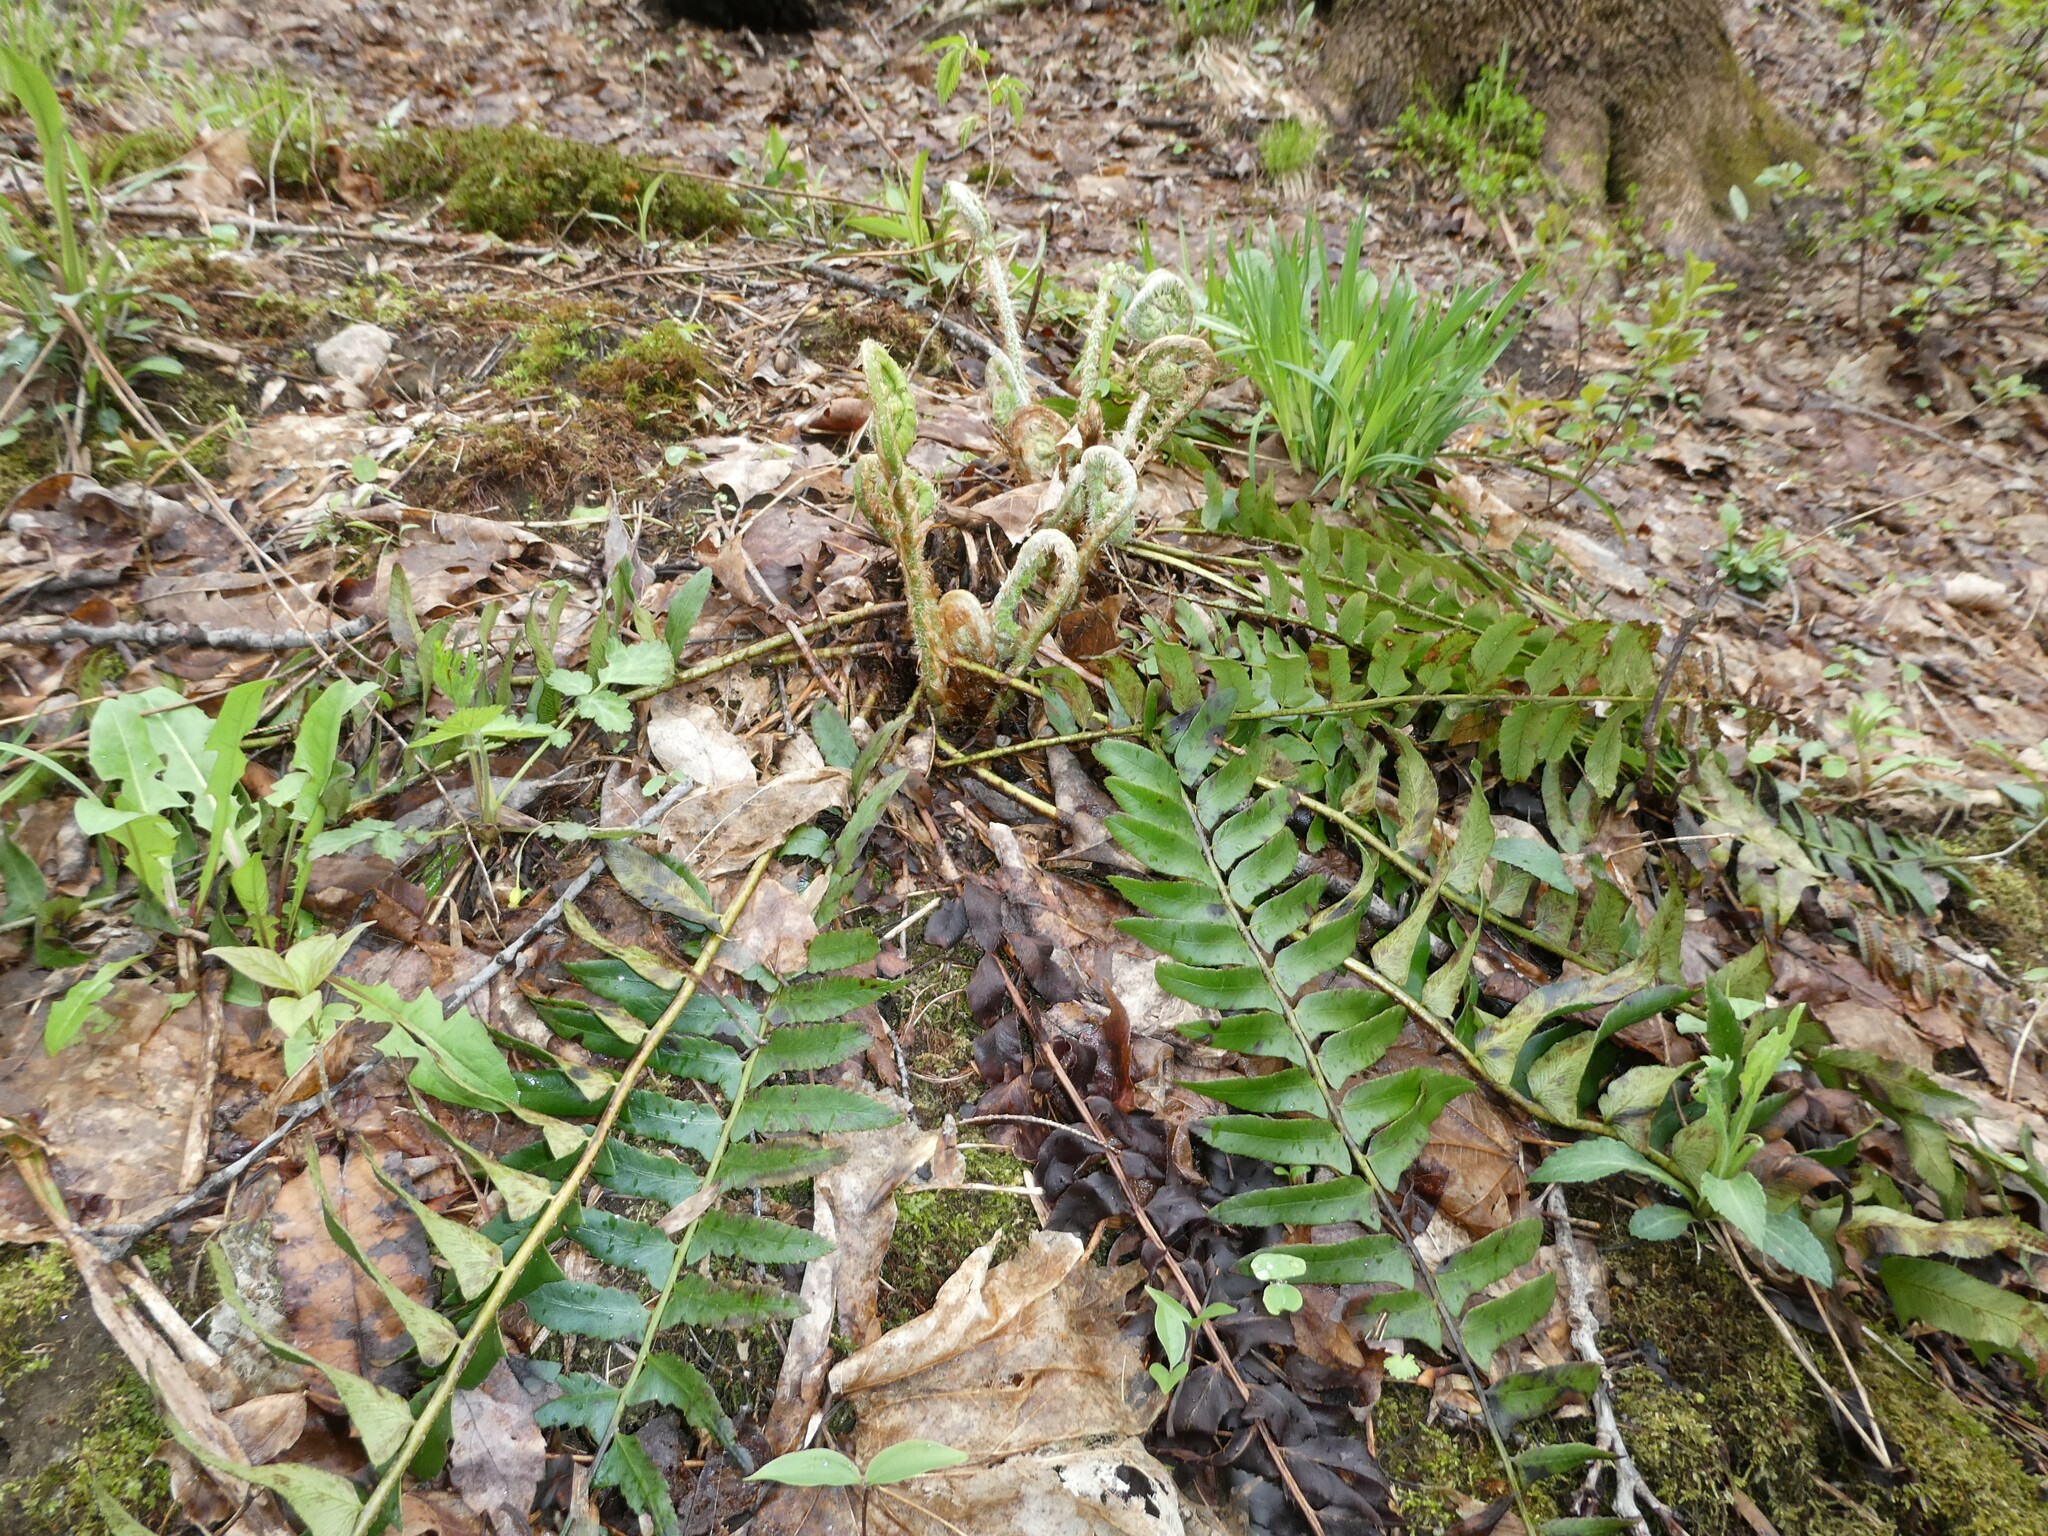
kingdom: Plantae
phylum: Tracheophyta
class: Polypodiopsida
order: Polypodiales
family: Dryopteridaceae
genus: Polystichum
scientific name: Polystichum acrostichoides
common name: Christmas fern
